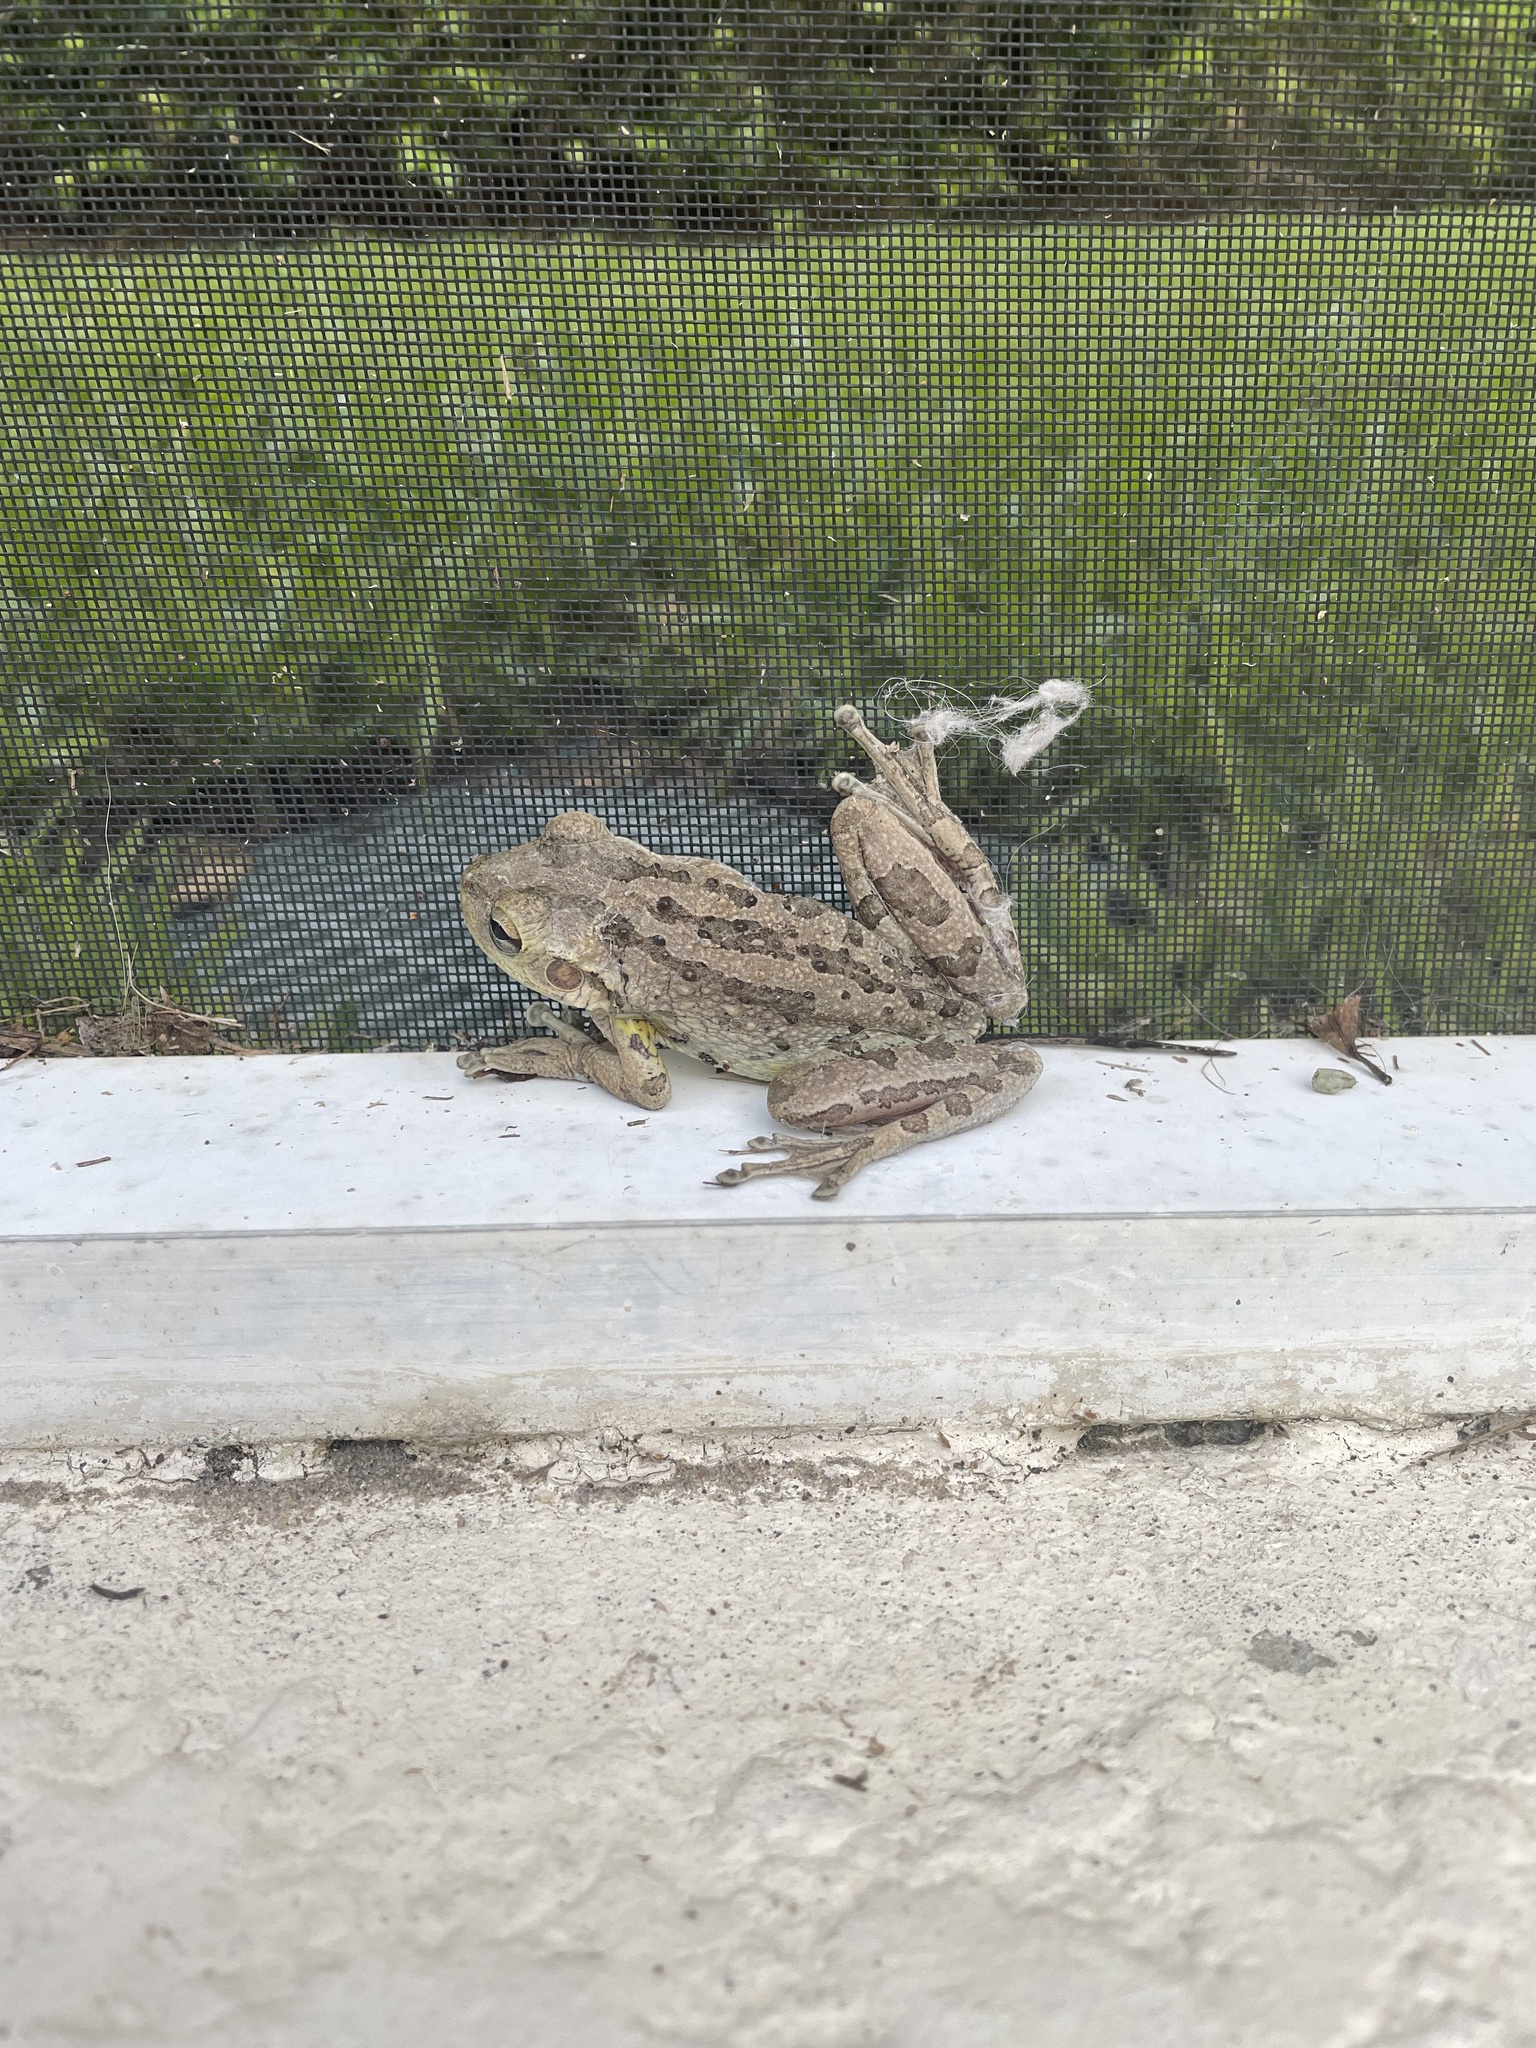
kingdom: Animalia
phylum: Chordata
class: Amphibia
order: Anura
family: Hylidae
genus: Osteopilus
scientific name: Osteopilus septentrionalis
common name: Cuban treefrog
